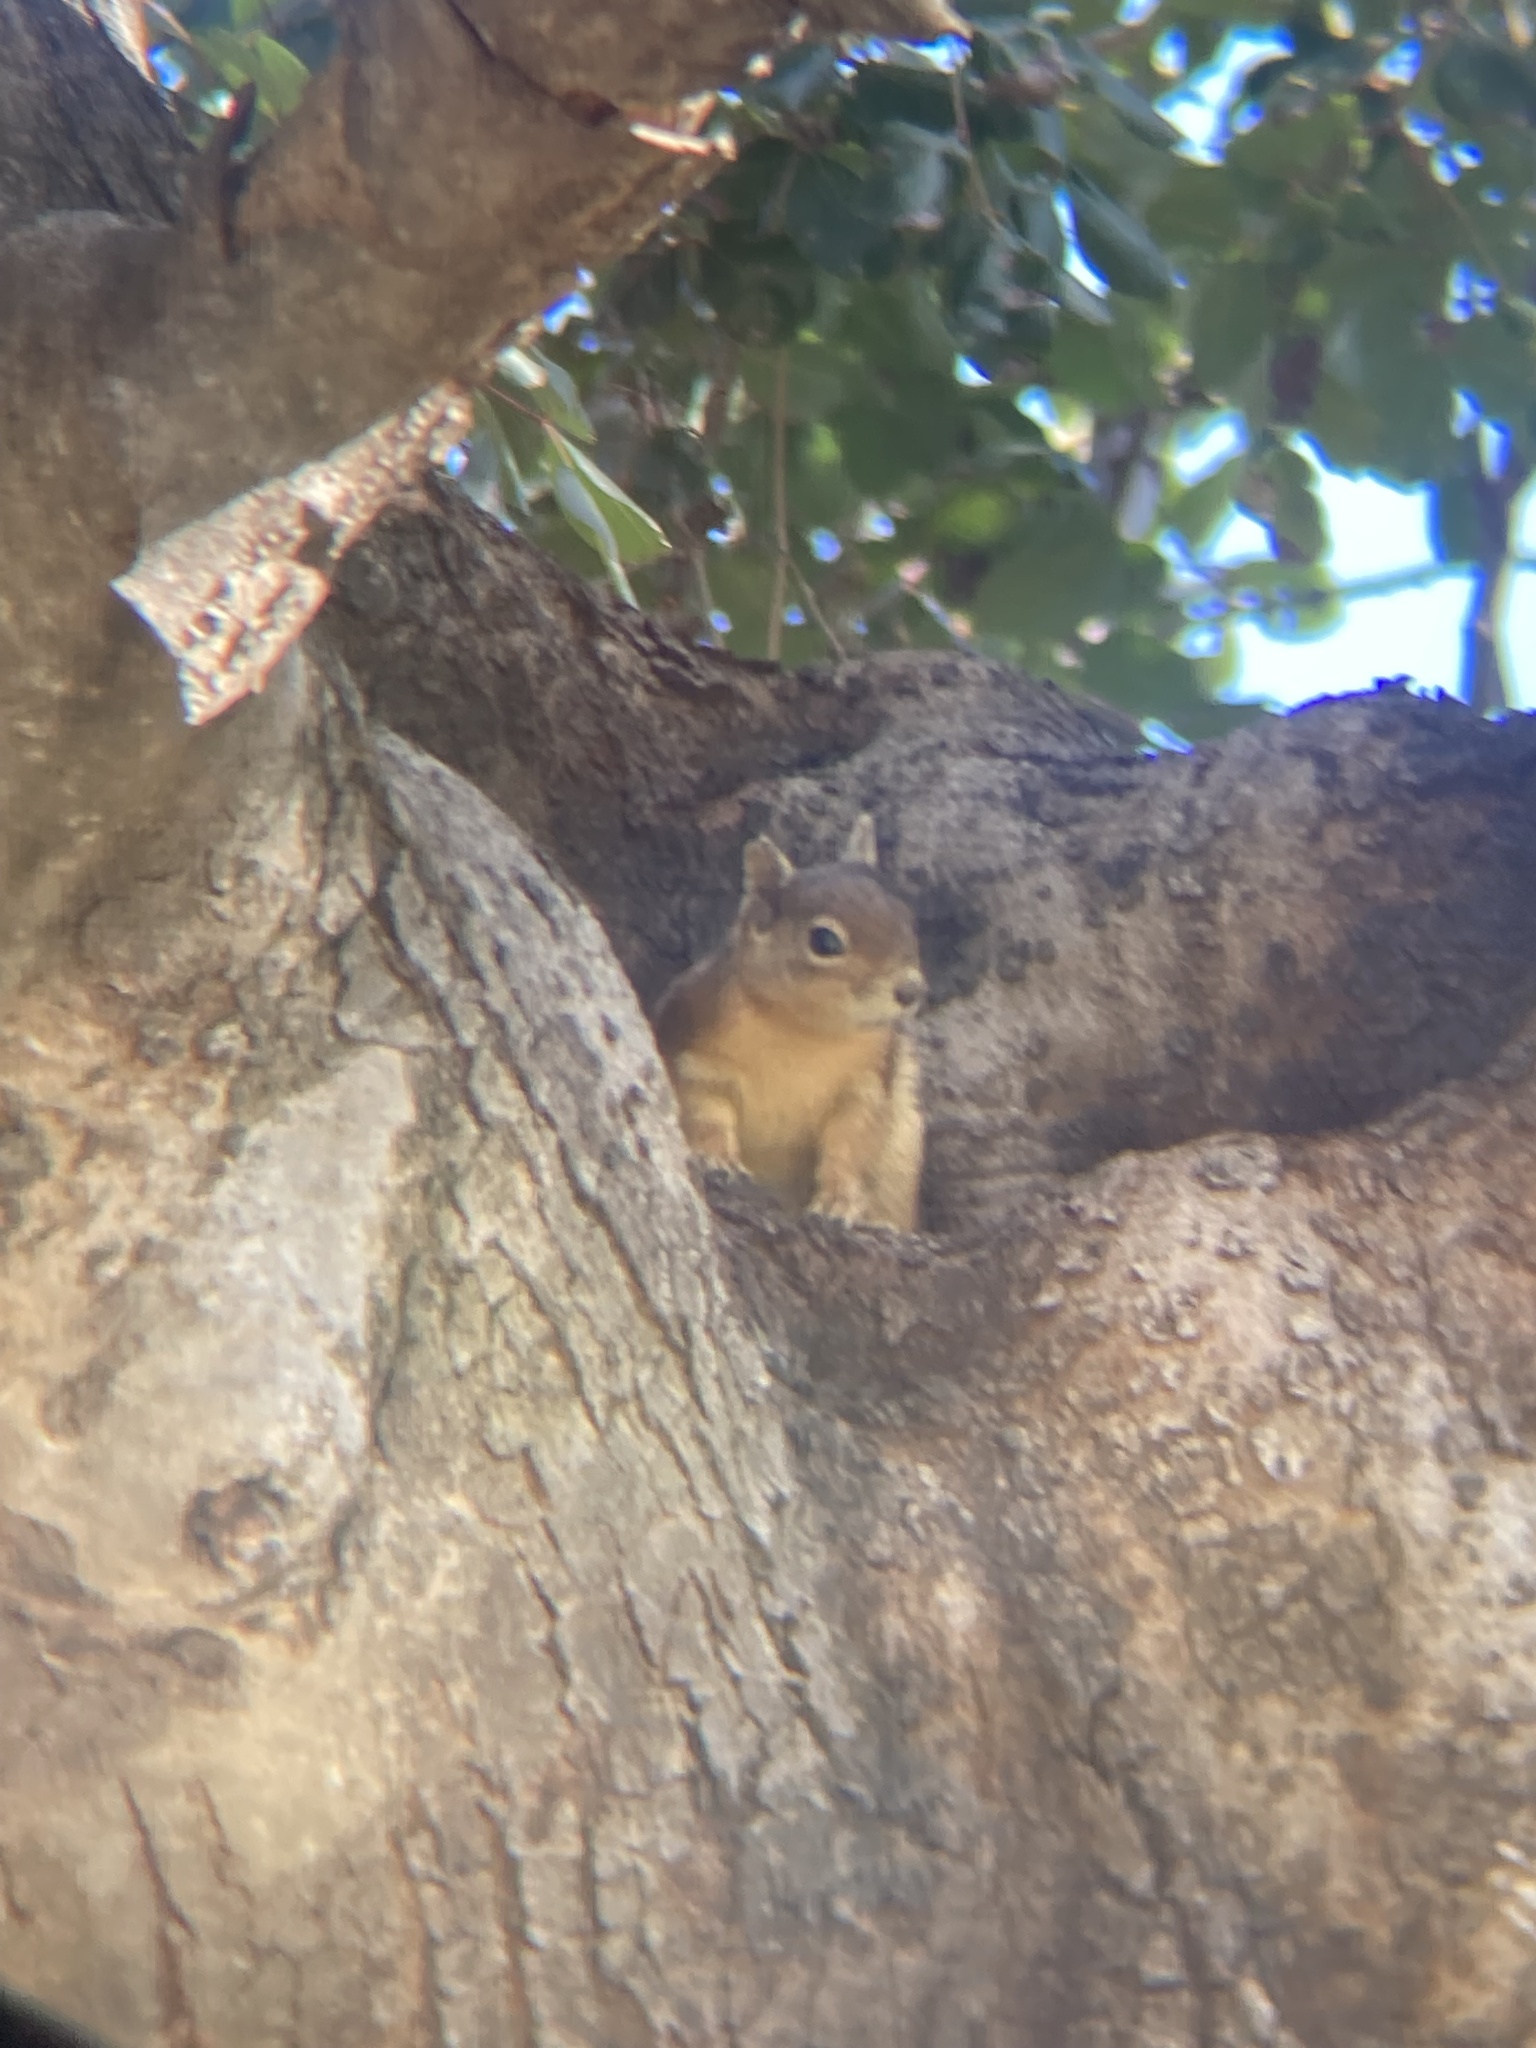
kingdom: Animalia
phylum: Chordata
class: Mammalia
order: Rodentia
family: Sciuridae
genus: Sciurus
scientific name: Sciurus anomalus
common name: Caucasian squirrel
